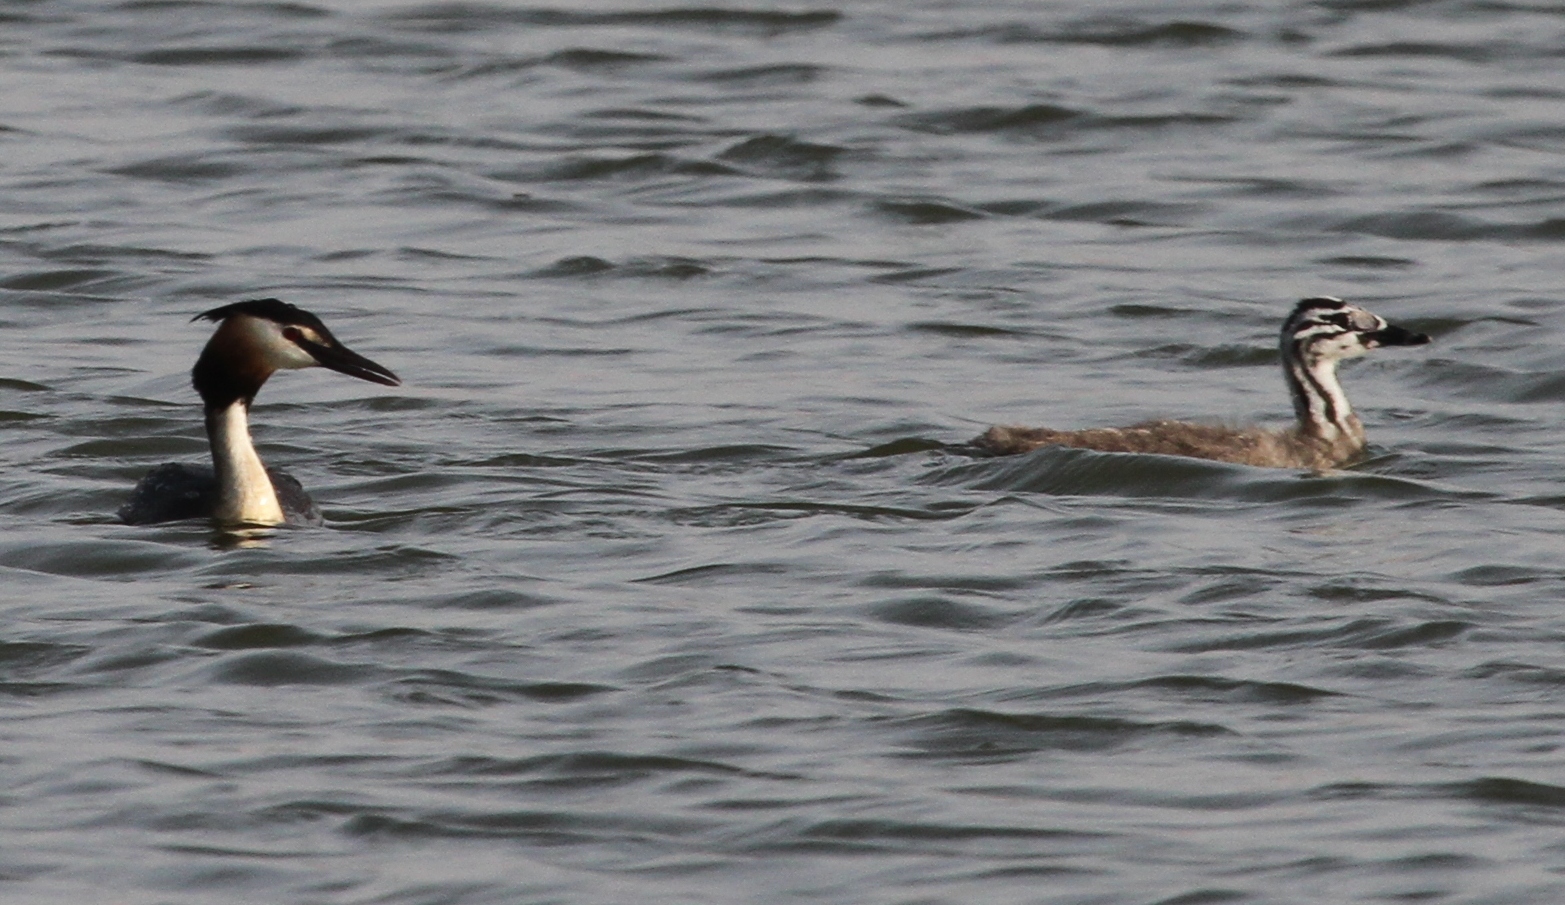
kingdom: Animalia
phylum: Chordata
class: Aves
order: Podicipediformes
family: Podicipedidae
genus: Podiceps
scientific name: Podiceps cristatus
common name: Great crested grebe
